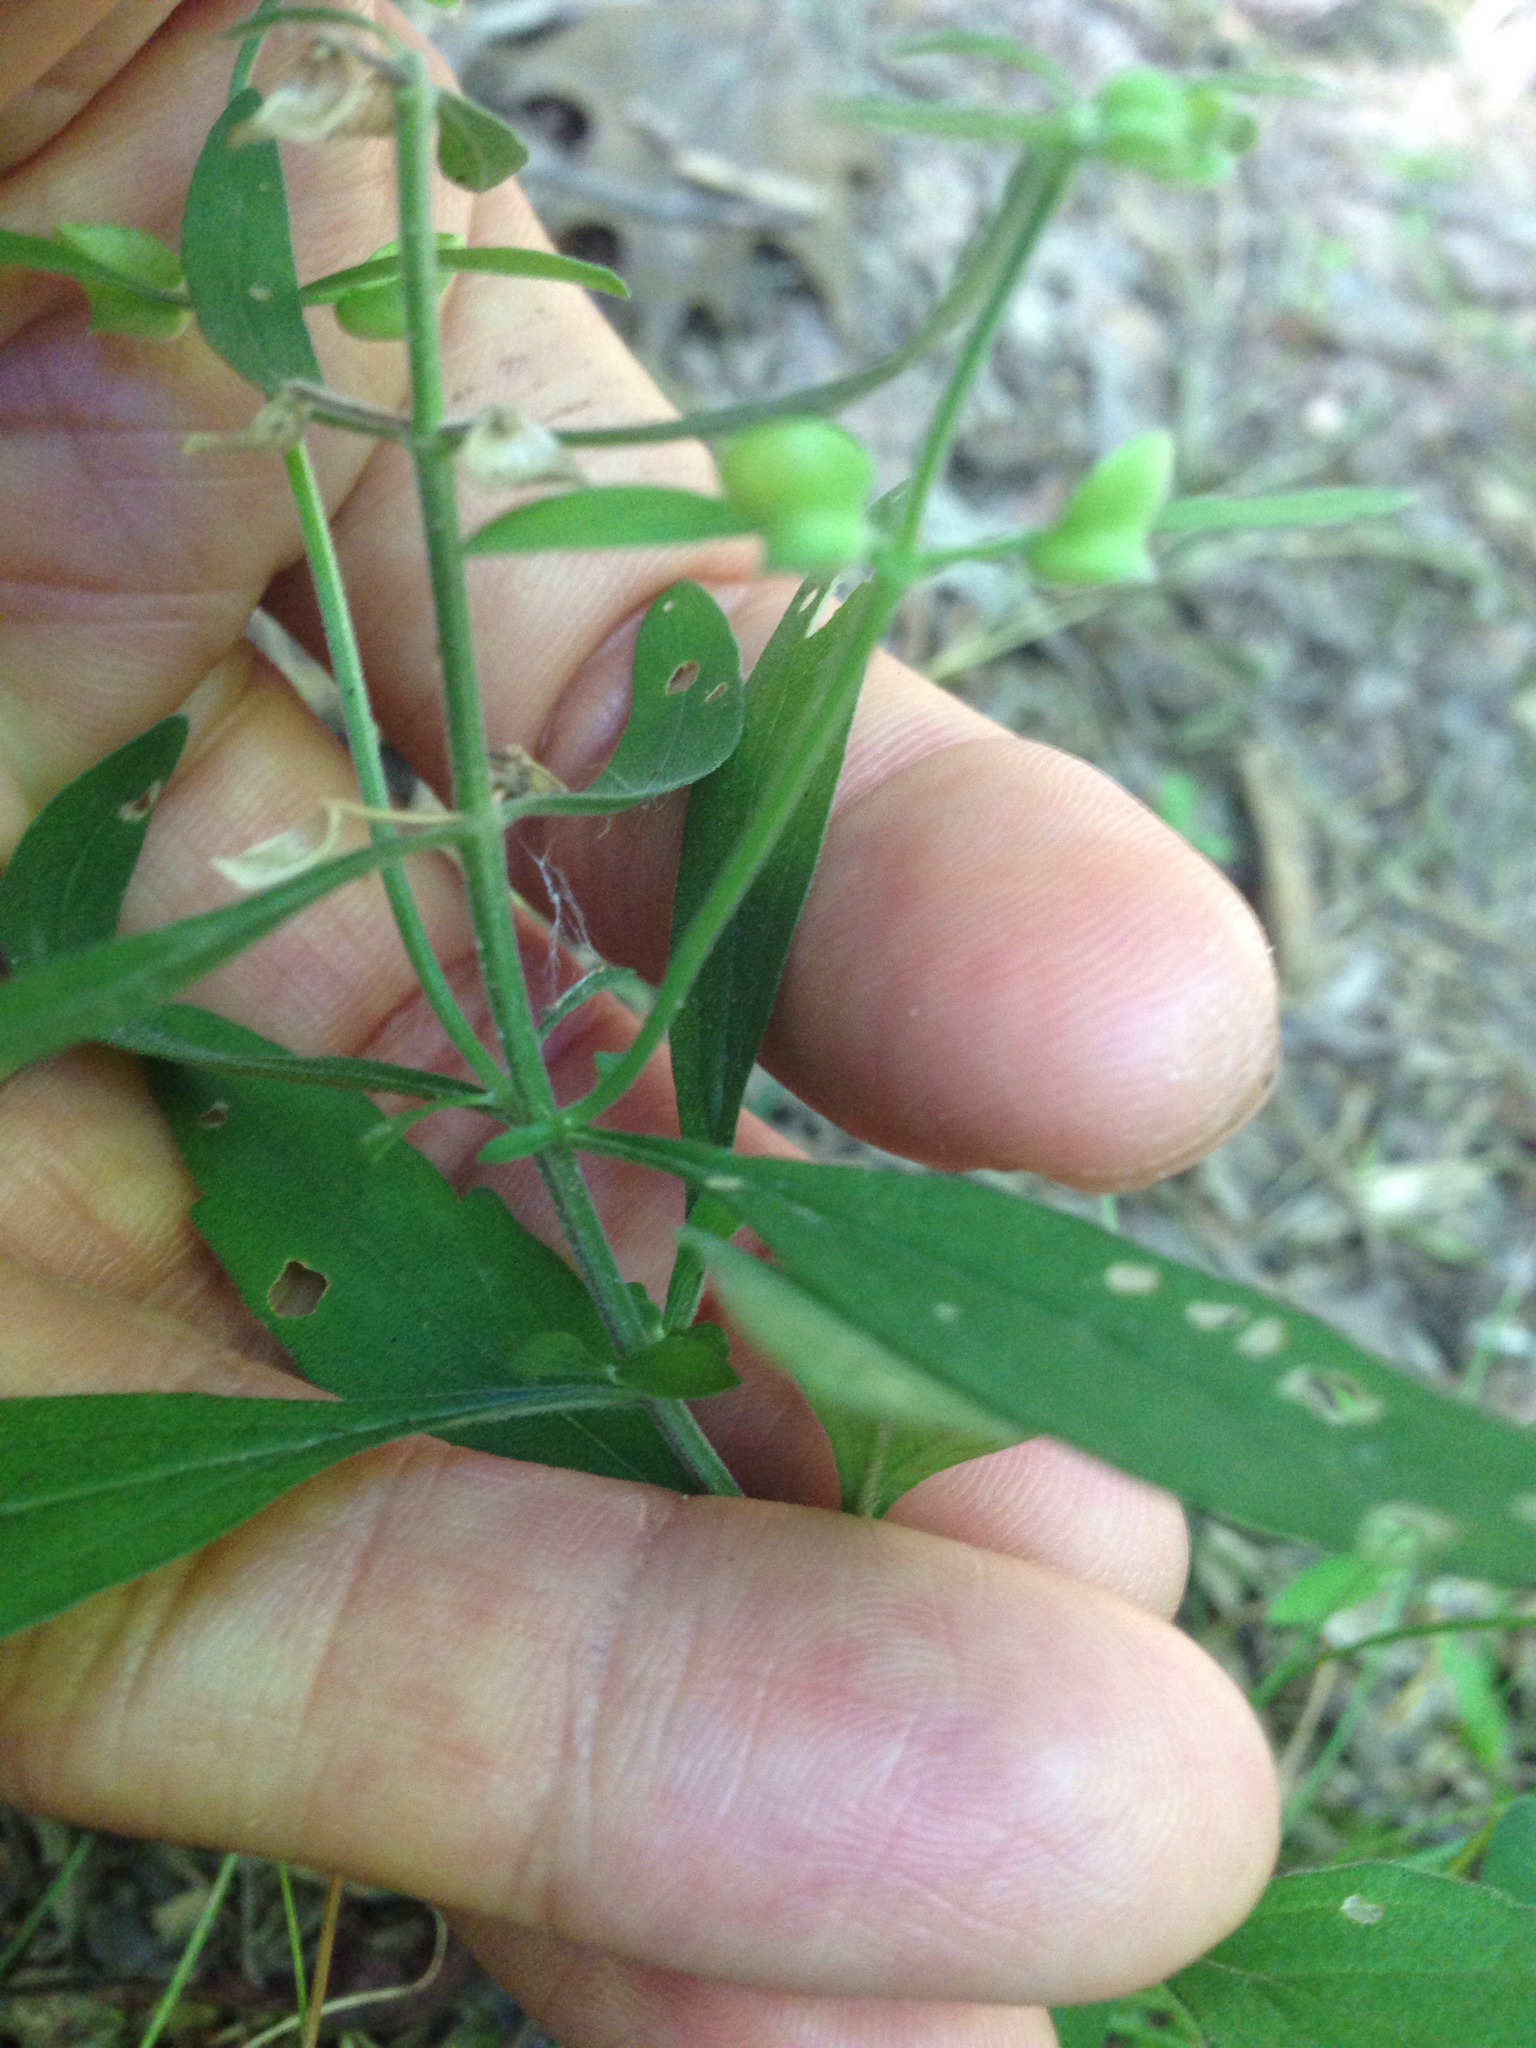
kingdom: Plantae
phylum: Tracheophyta
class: Magnoliopsida
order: Lamiales
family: Lamiaceae
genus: Scutellaria
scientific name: Scutellaria integrifolia
